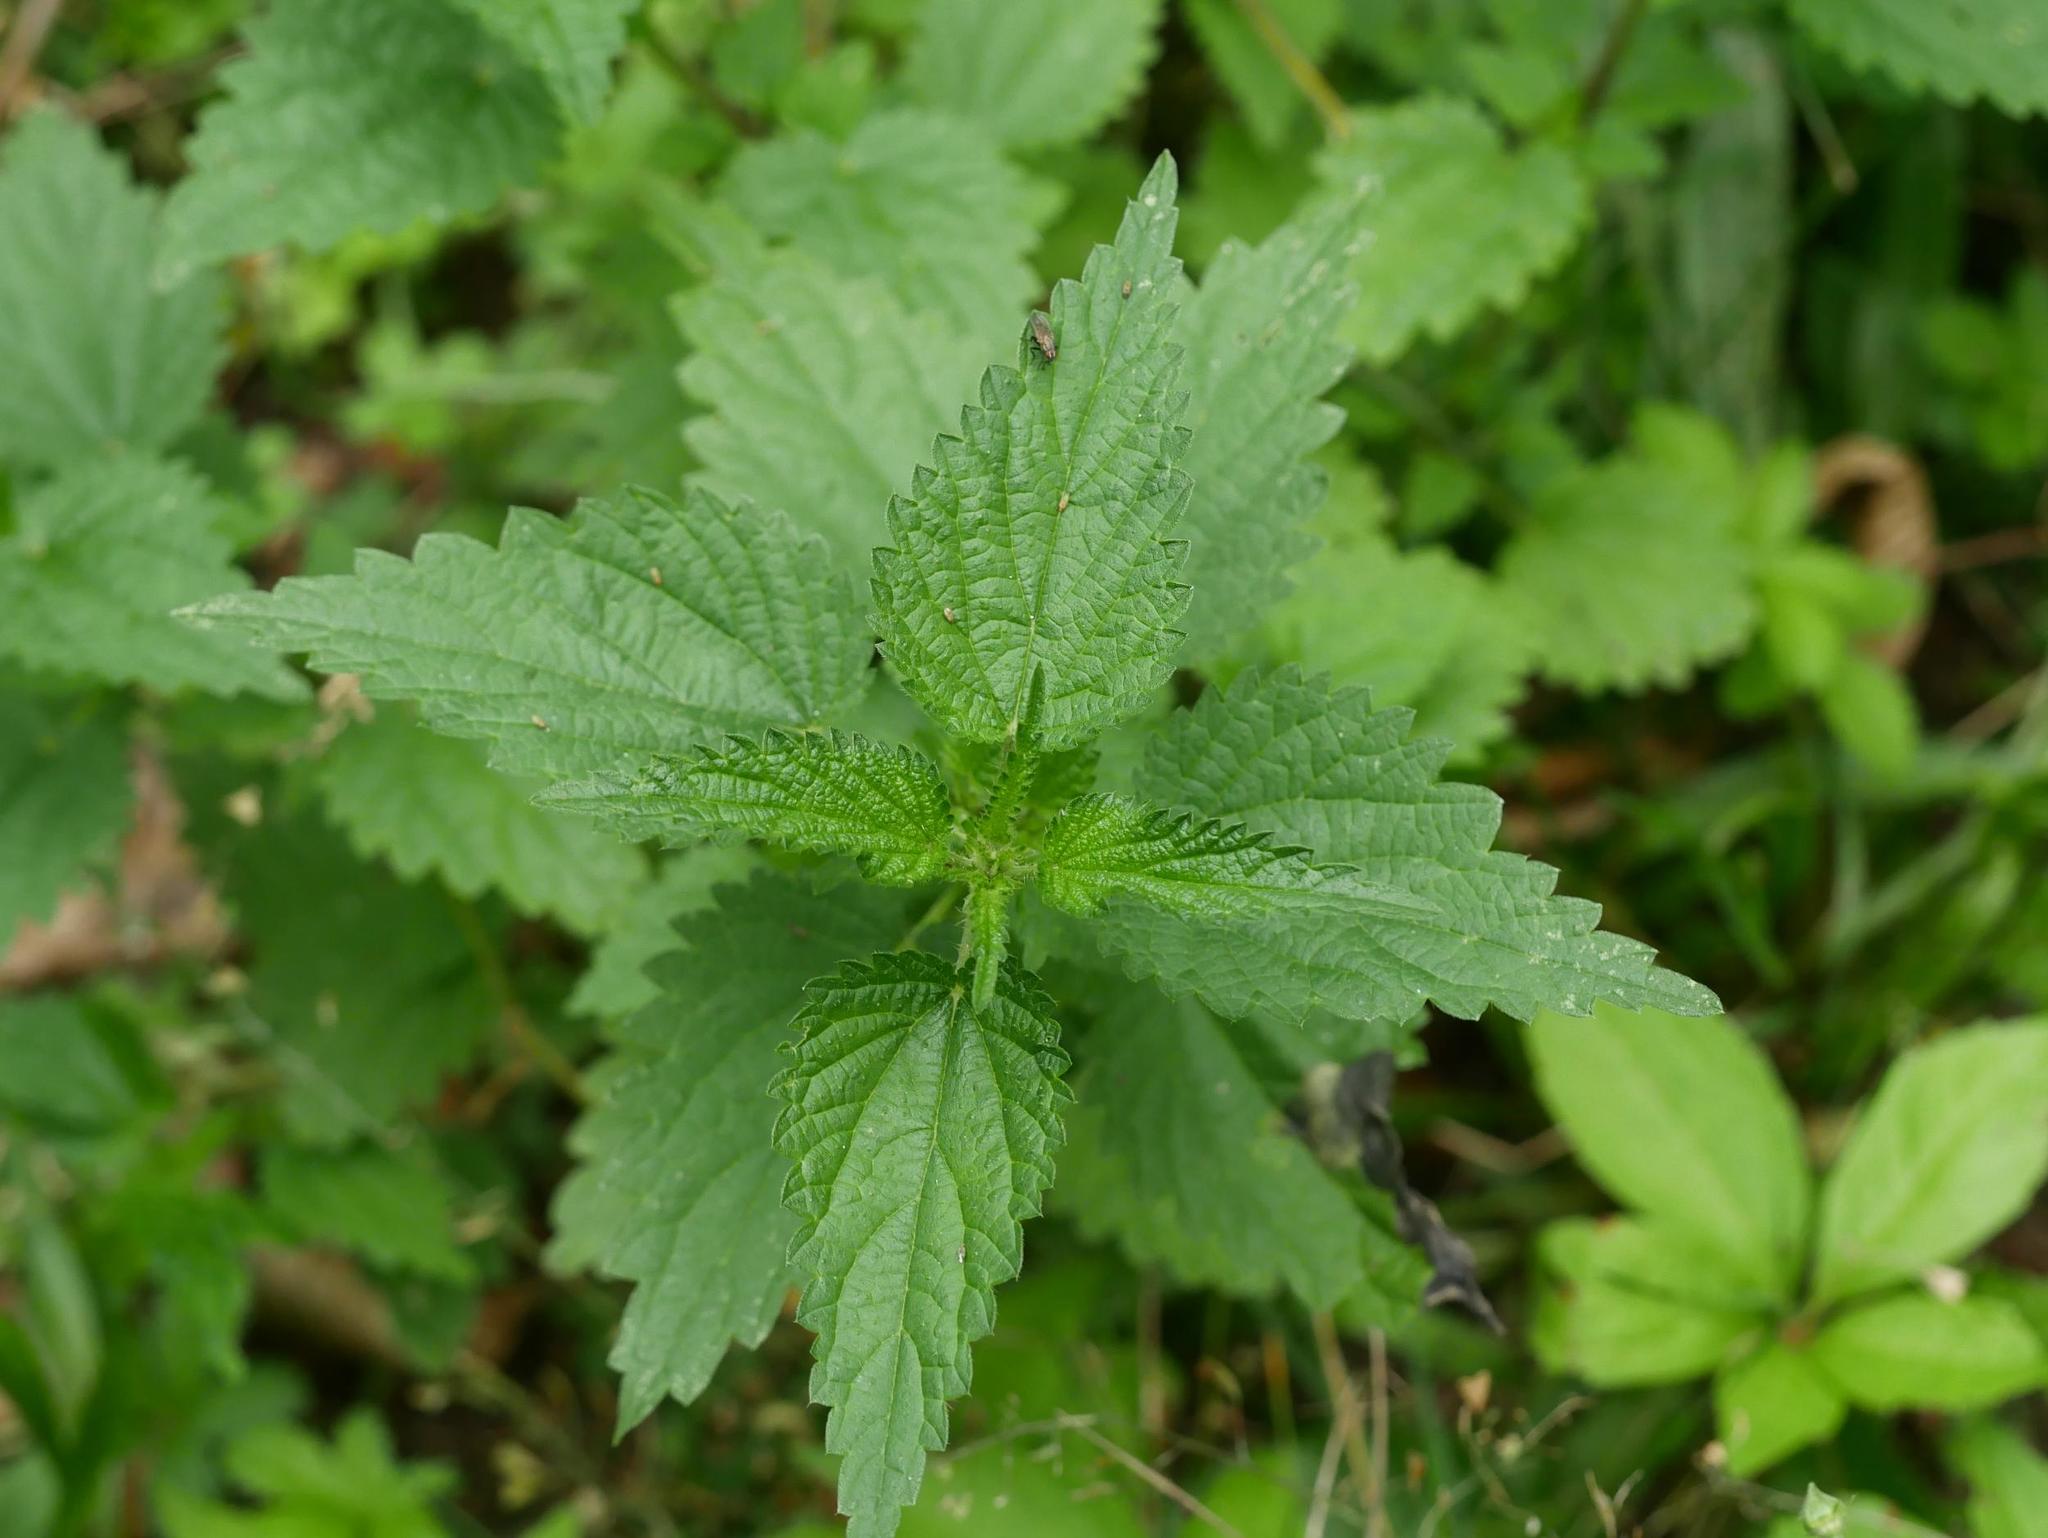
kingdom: Plantae
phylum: Tracheophyta
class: Magnoliopsida
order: Rosales
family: Urticaceae
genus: Urtica
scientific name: Urtica dioica
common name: Common nettle
